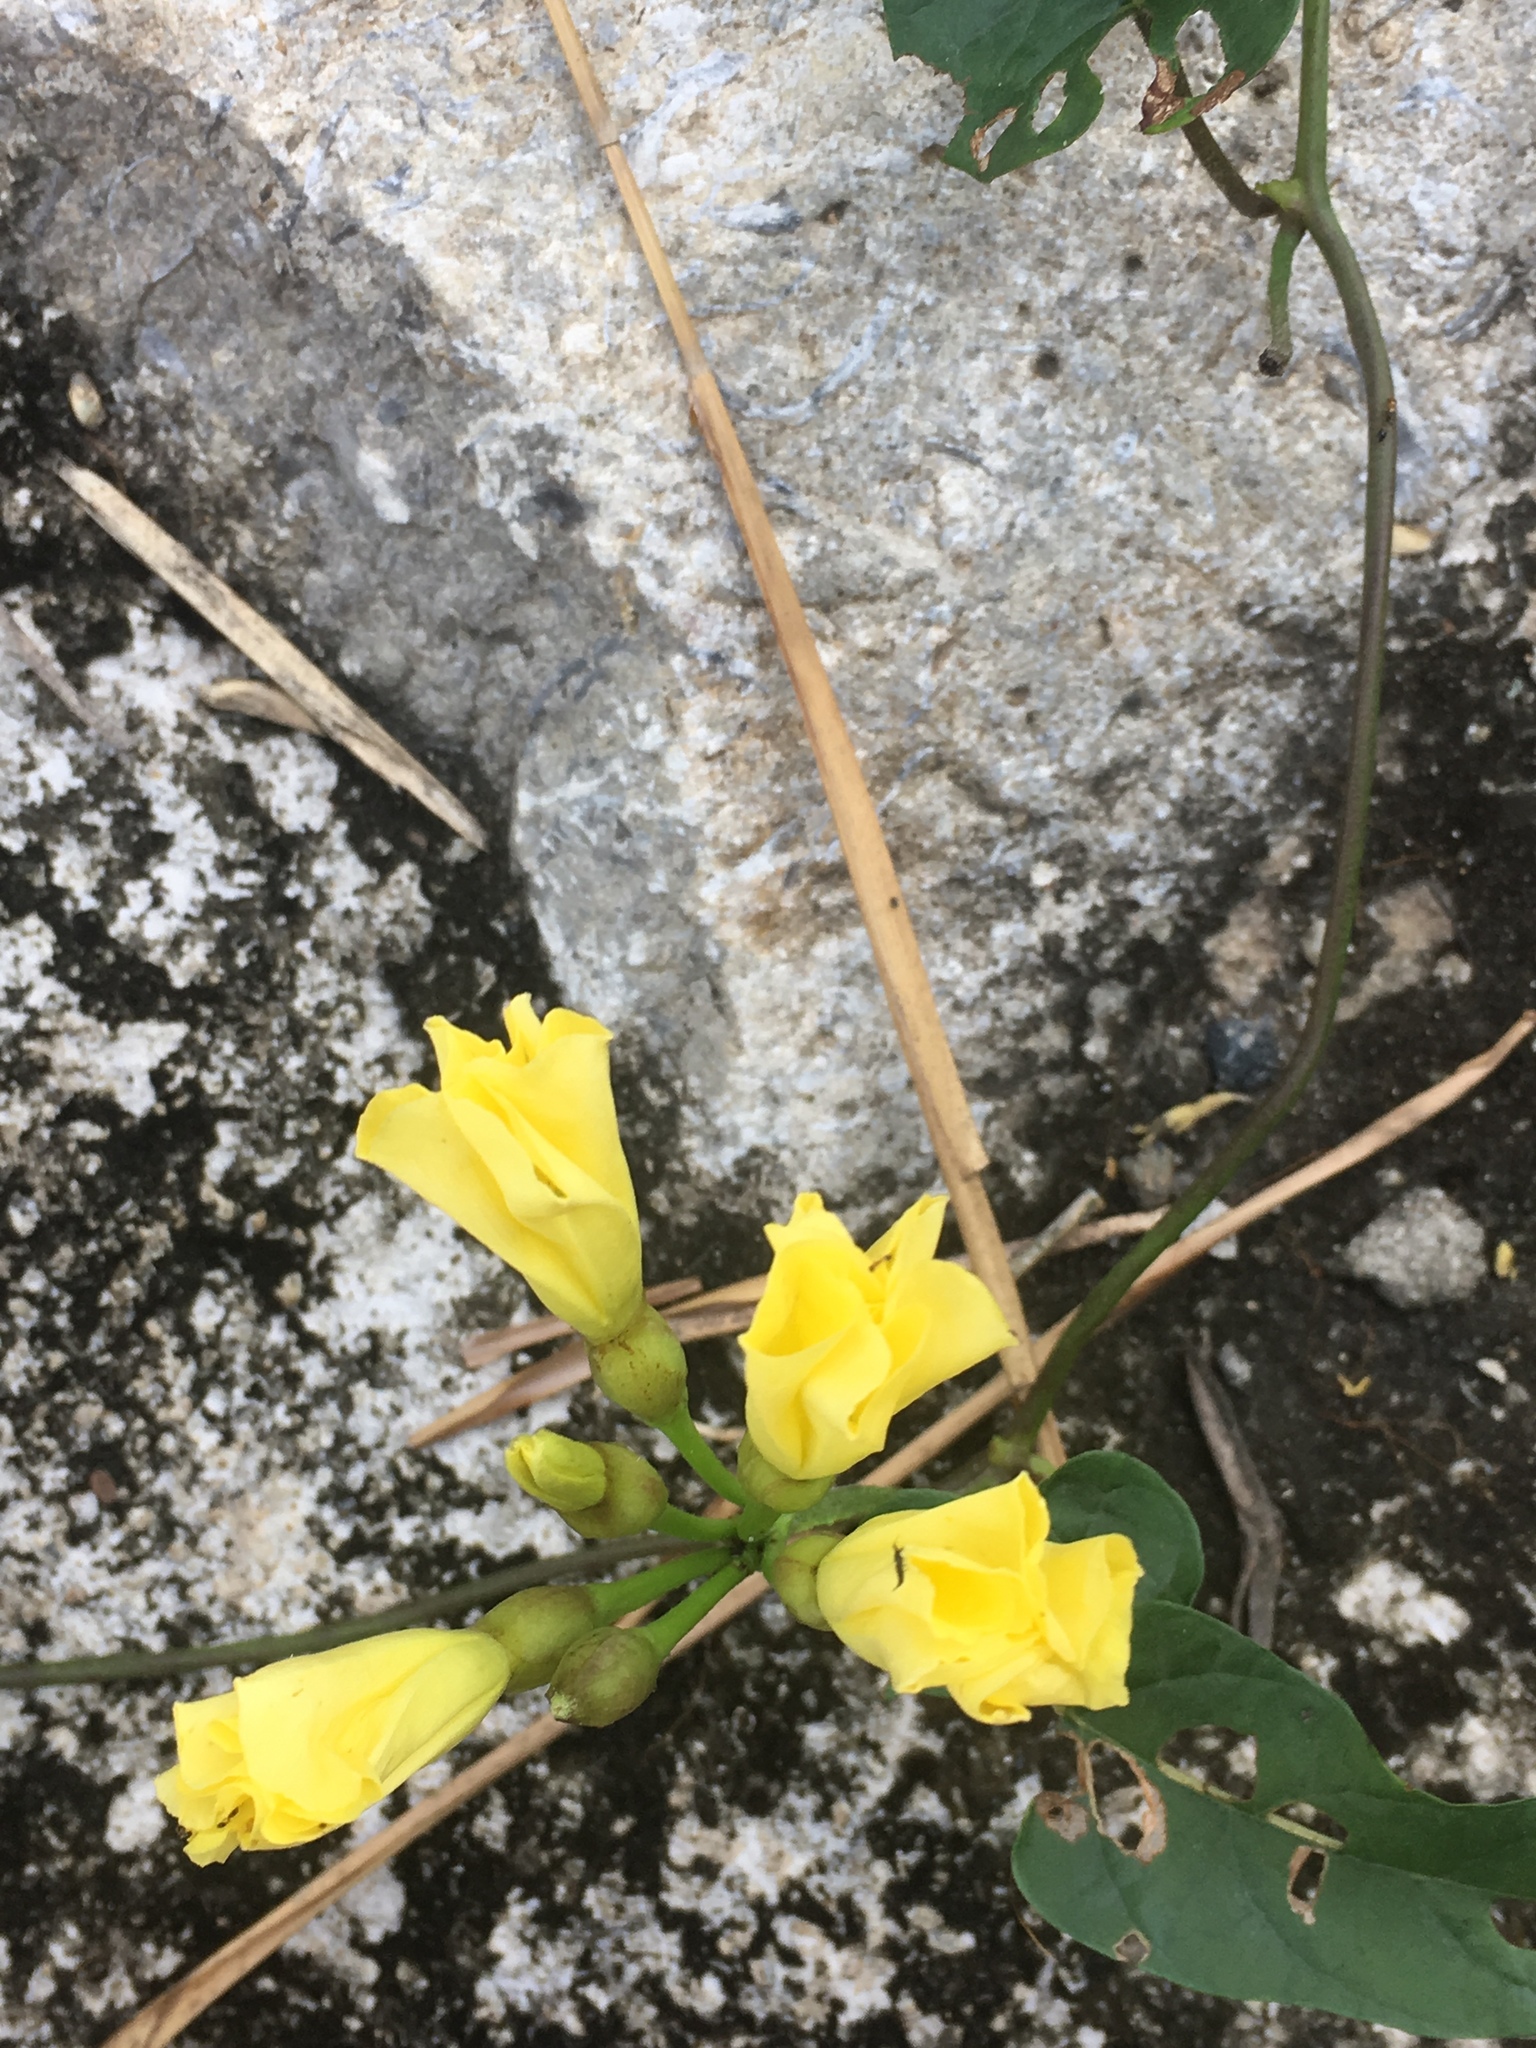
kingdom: Plantae
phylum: Tracheophyta
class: Magnoliopsida
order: Solanales
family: Convolvulaceae
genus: Camonea
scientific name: Camonea umbellata
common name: Hogvine
